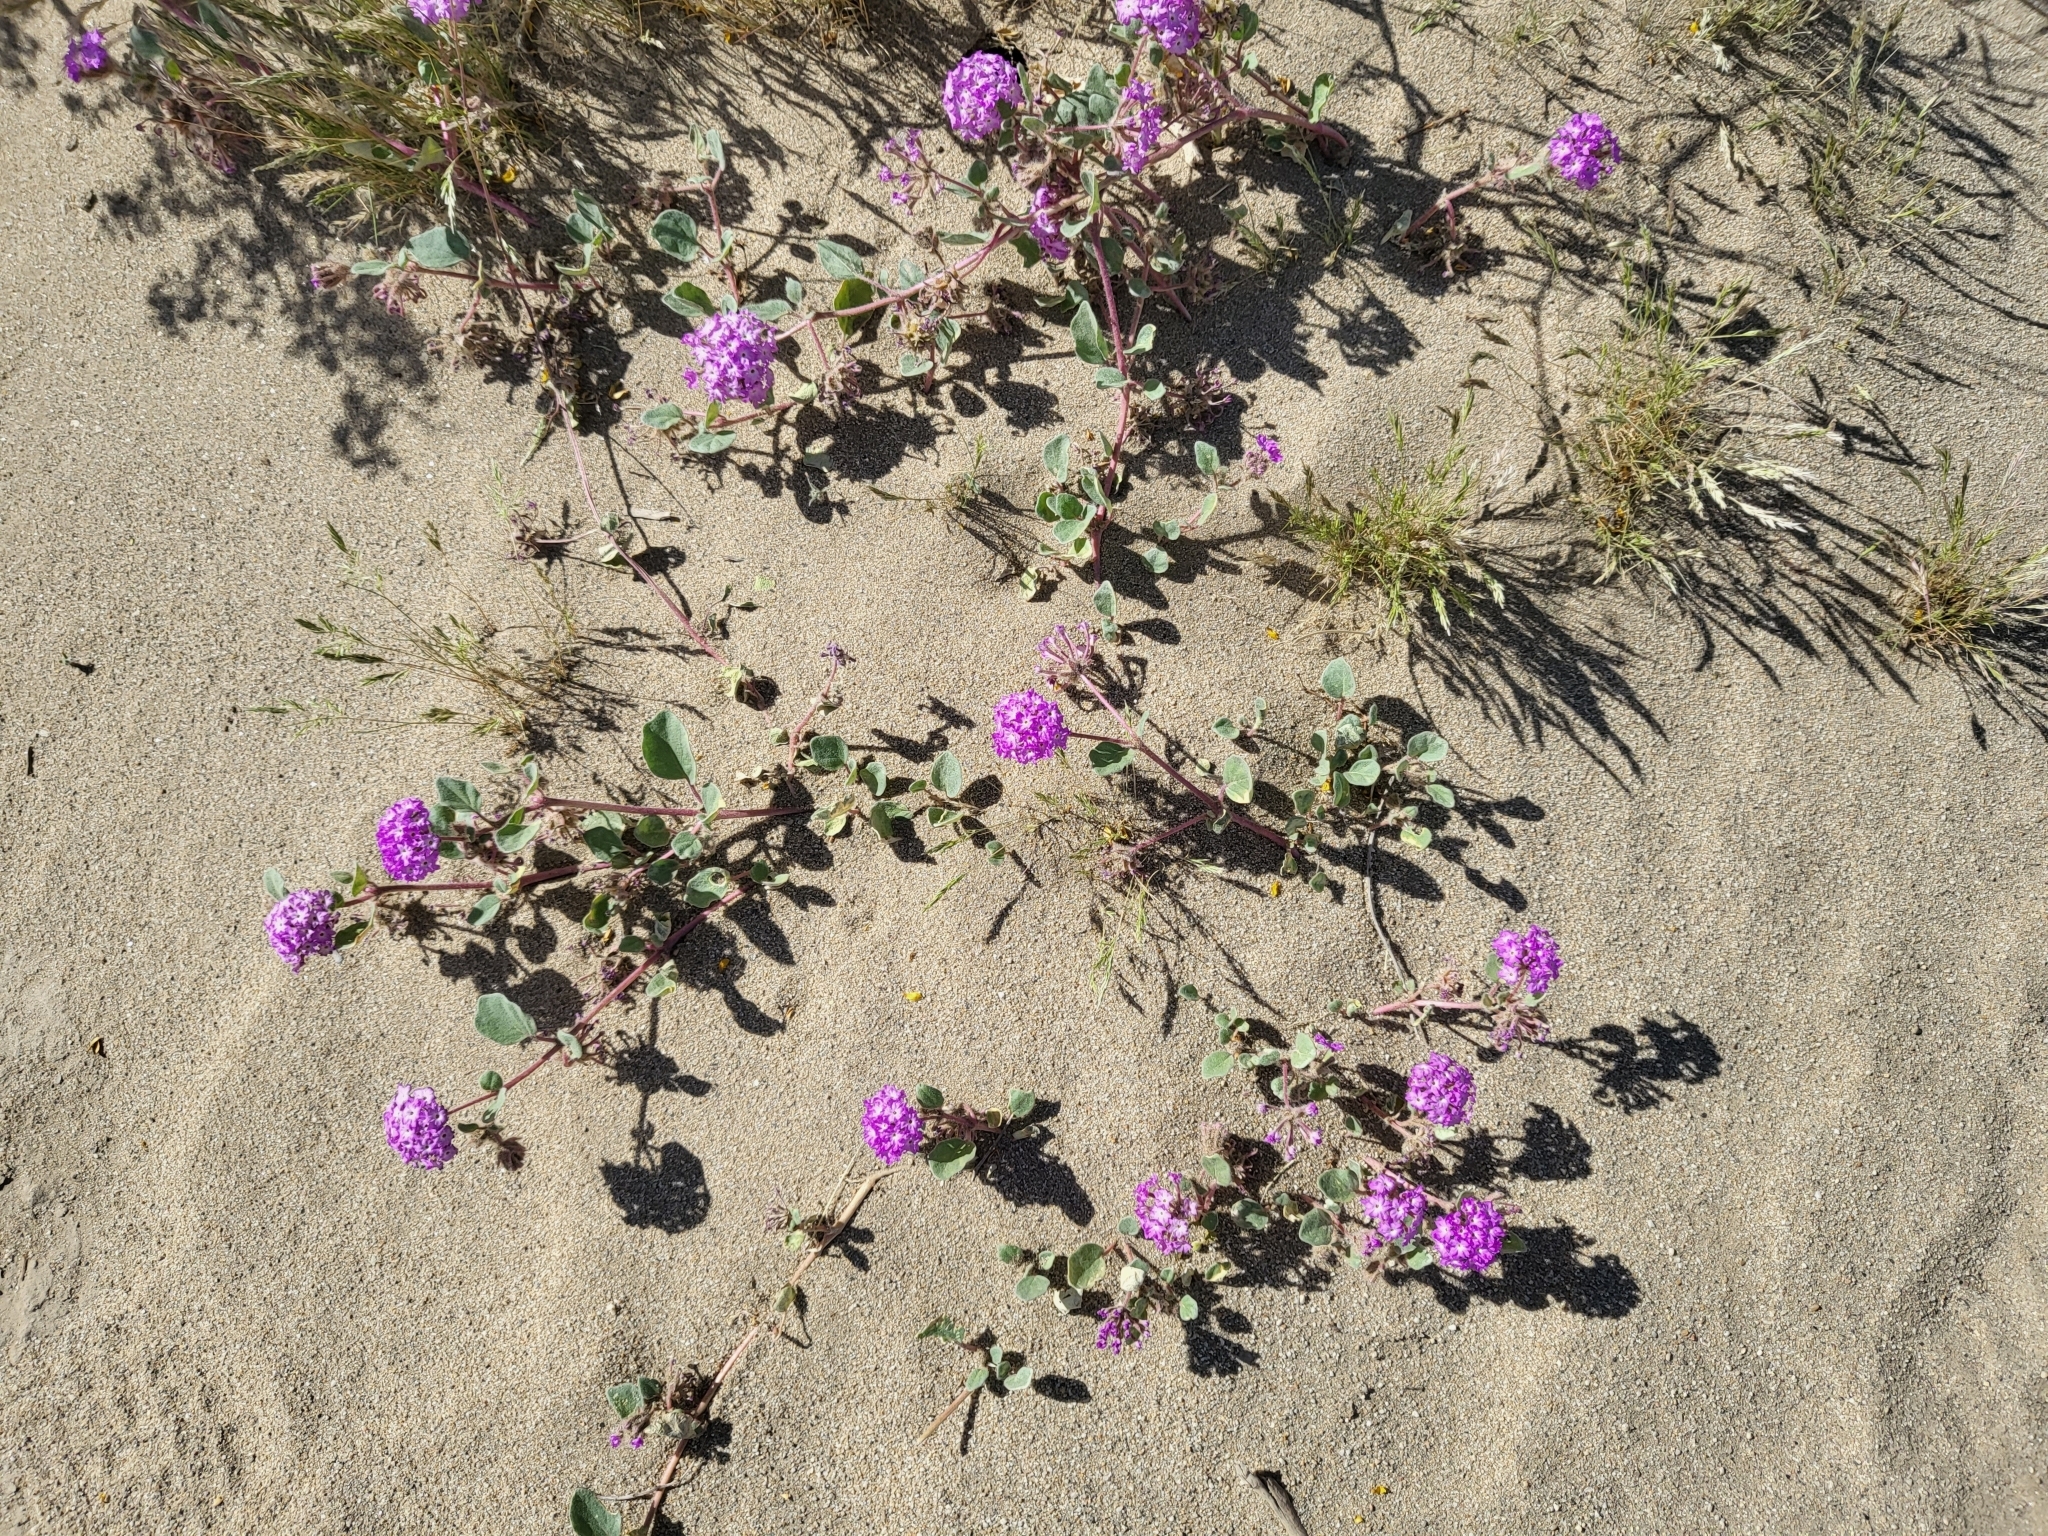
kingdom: Plantae
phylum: Tracheophyta
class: Magnoliopsida
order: Caryophyllales
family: Nyctaginaceae
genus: Abronia
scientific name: Abronia villosa
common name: Desert sand-verbena
